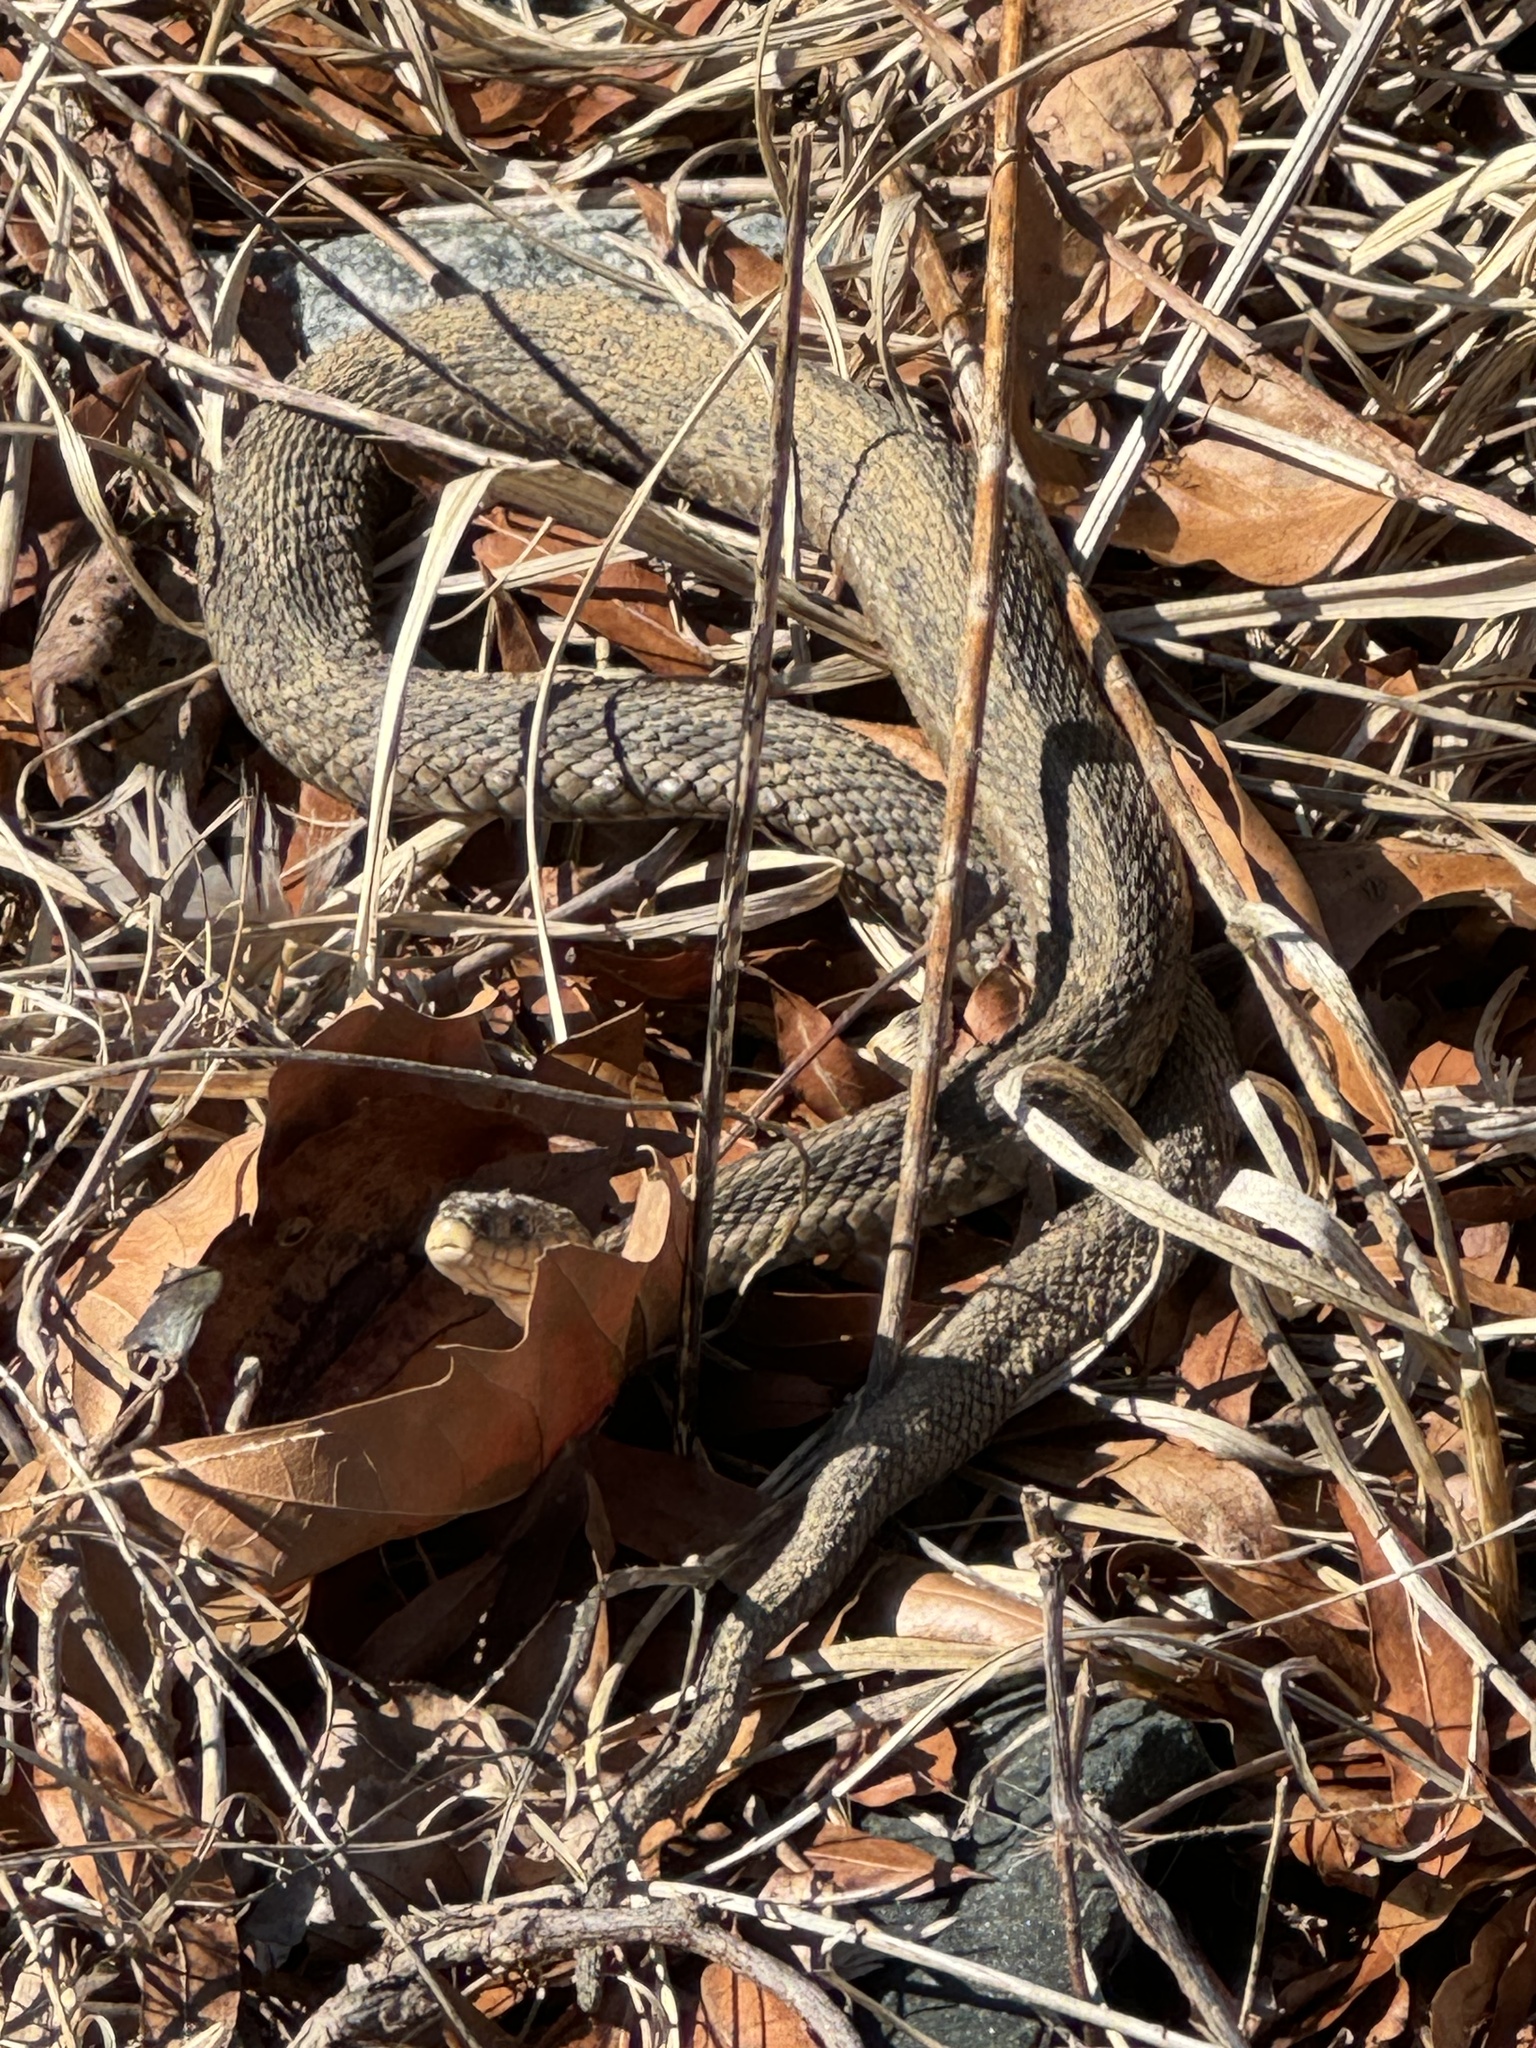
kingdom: Animalia
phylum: Chordata
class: Squamata
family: Colubridae
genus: Thamnophis
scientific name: Thamnophis sirtalis
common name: Common garter snake
